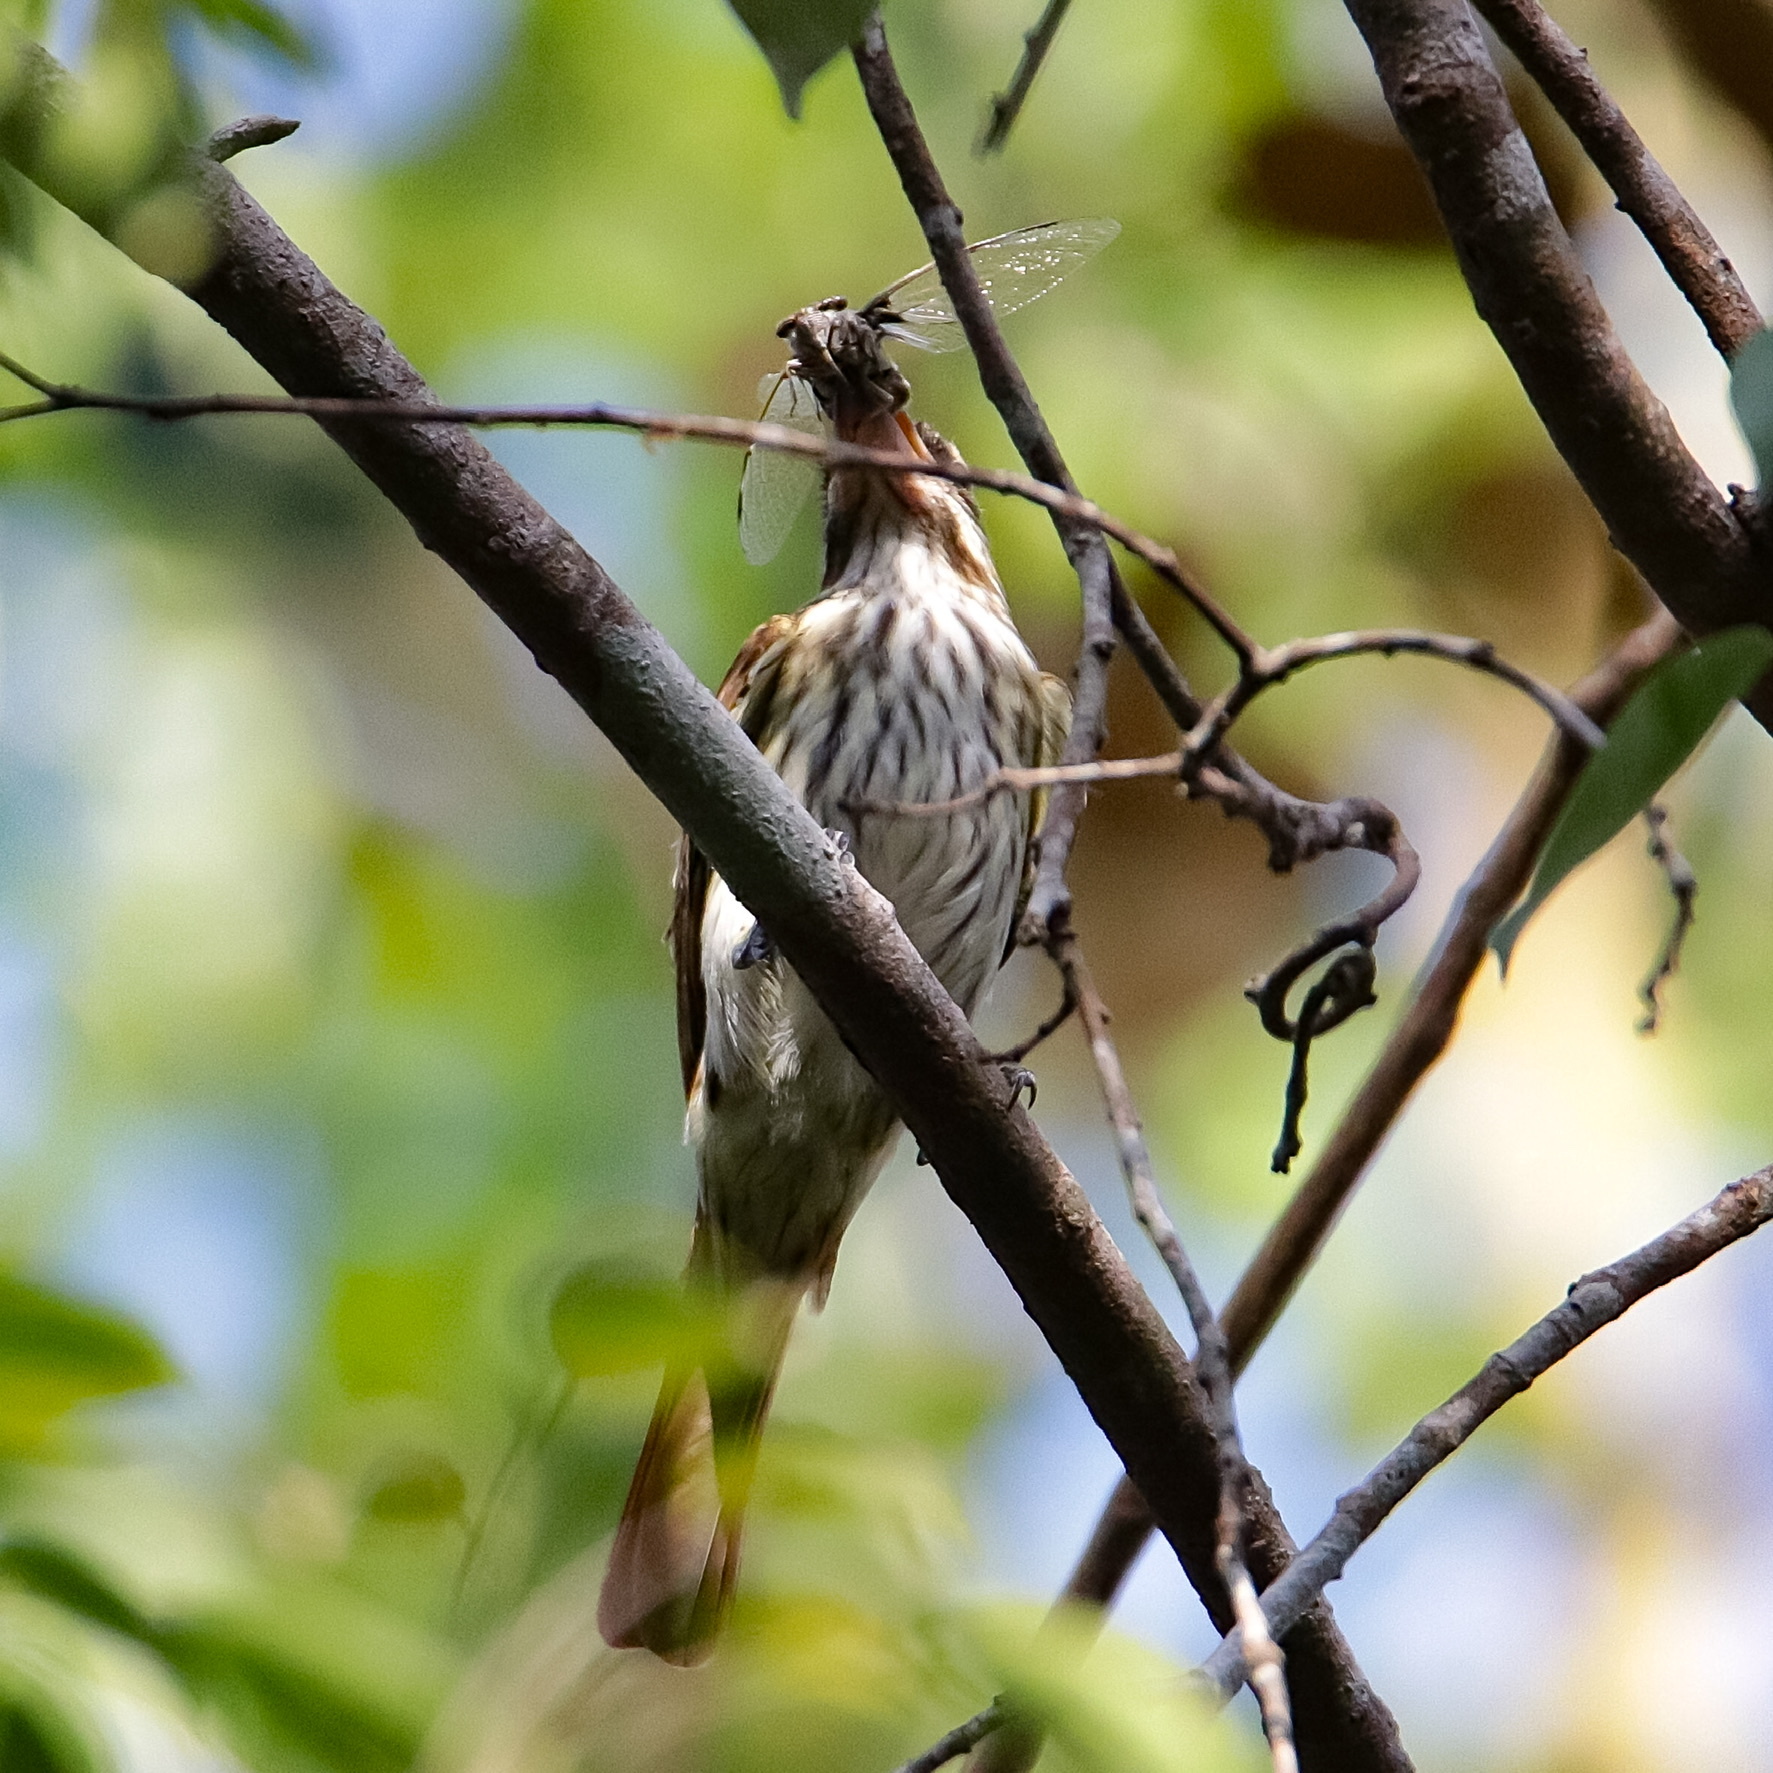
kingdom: Animalia
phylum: Chordata
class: Aves
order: Passeriformes
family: Tyrannidae
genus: Myiodynastes
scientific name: Myiodynastes maculatus
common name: Streaked flycatcher
